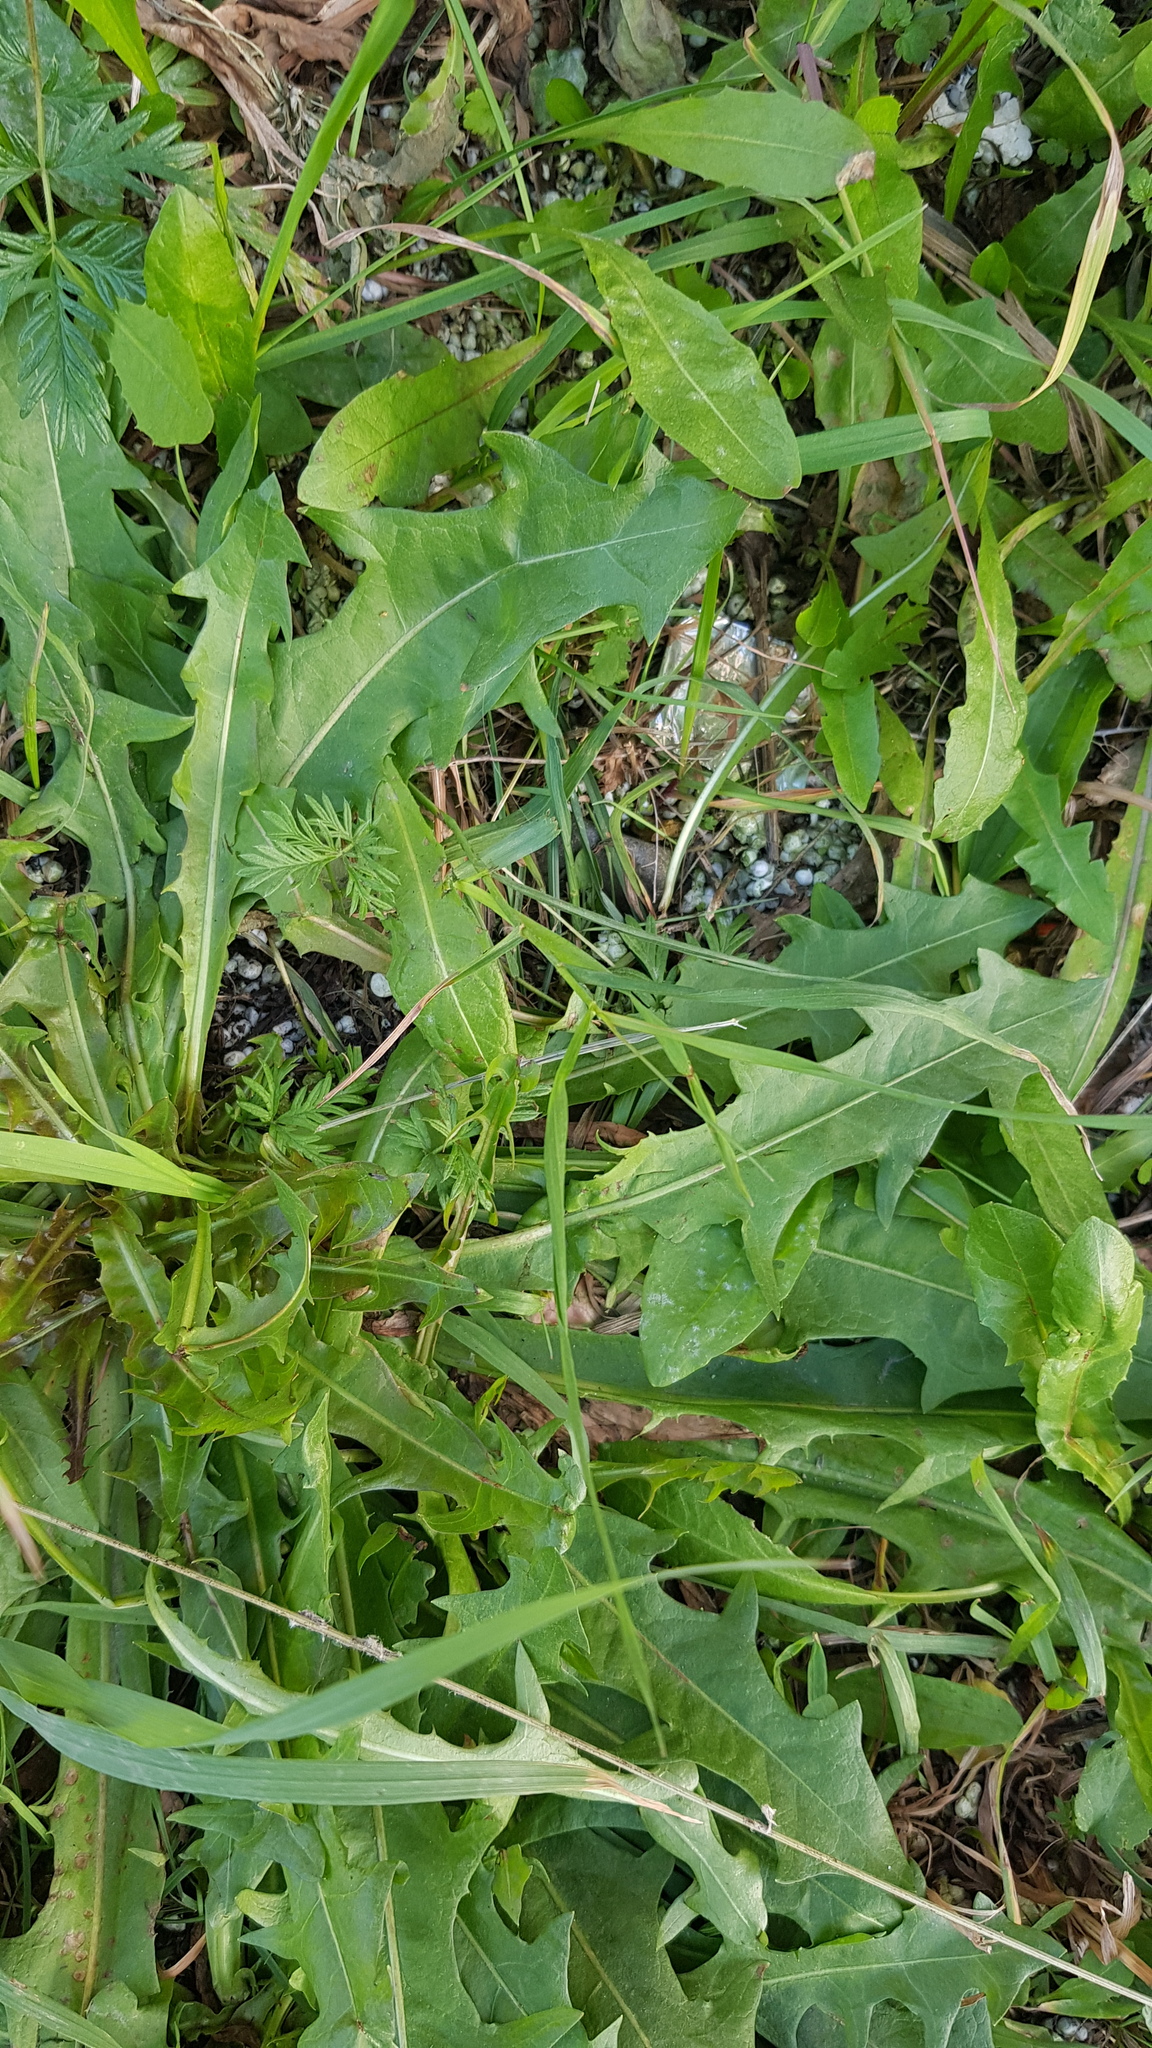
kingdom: Plantae
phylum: Tracheophyta
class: Magnoliopsida
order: Asterales
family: Asteraceae
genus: Taraxacum
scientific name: Taraxacum officinale
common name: Common dandelion
